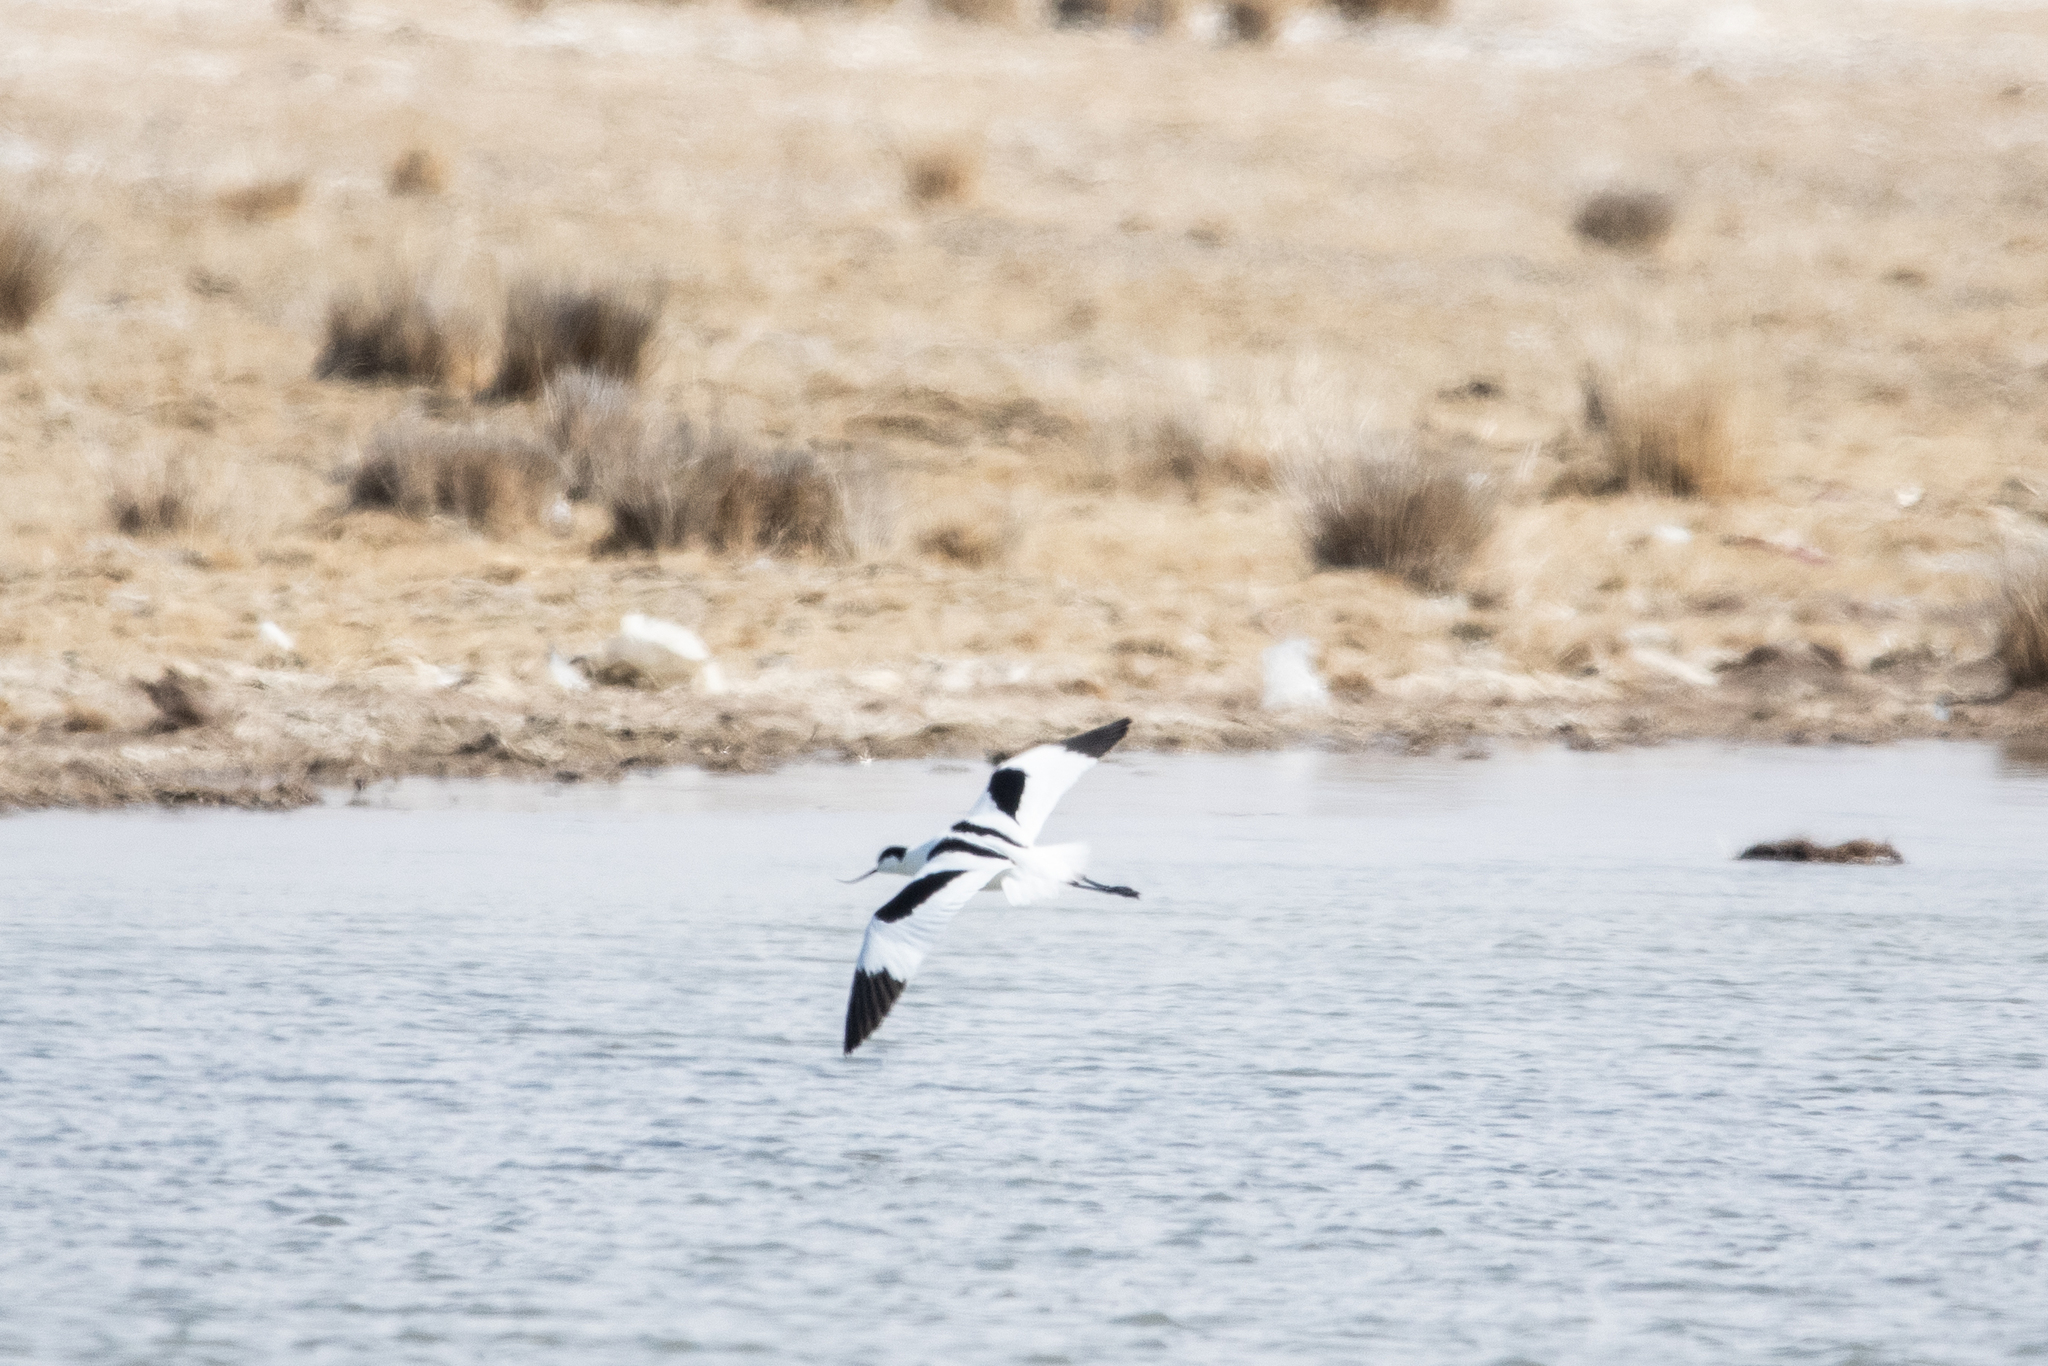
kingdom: Animalia
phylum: Chordata
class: Aves
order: Charadriiformes
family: Recurvirostridae
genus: Recurvirostra
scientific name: Recurvirostra avosetta
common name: Pied avocet
